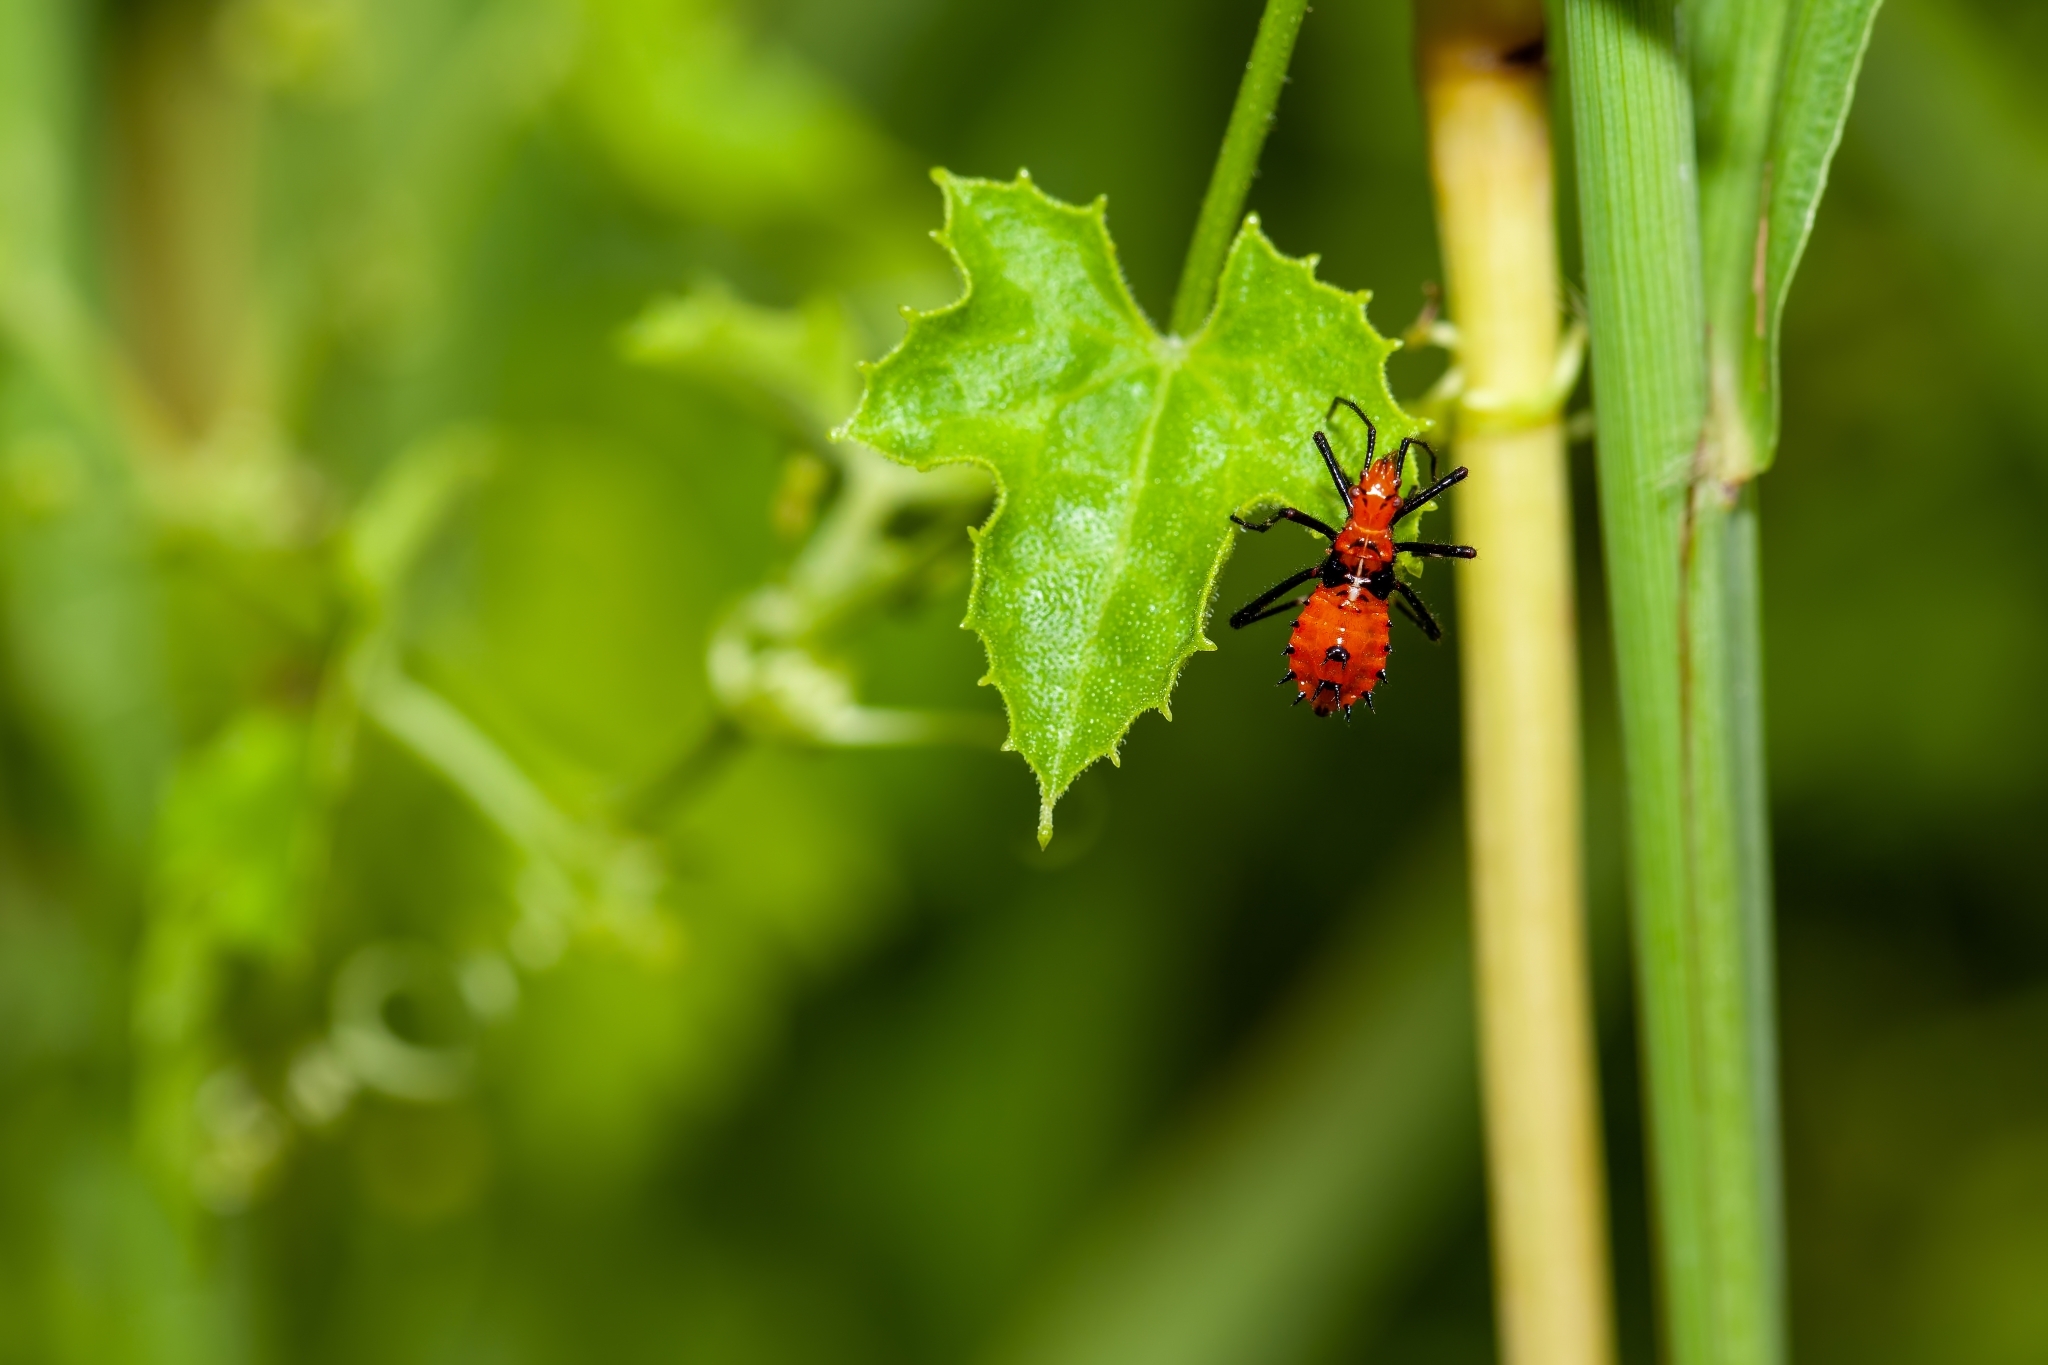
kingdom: Animalia
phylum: Arthropoda
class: Insecta
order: Hemiptera
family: Coreidae
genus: Phthiacnemia
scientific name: Phthiacnemia picta
